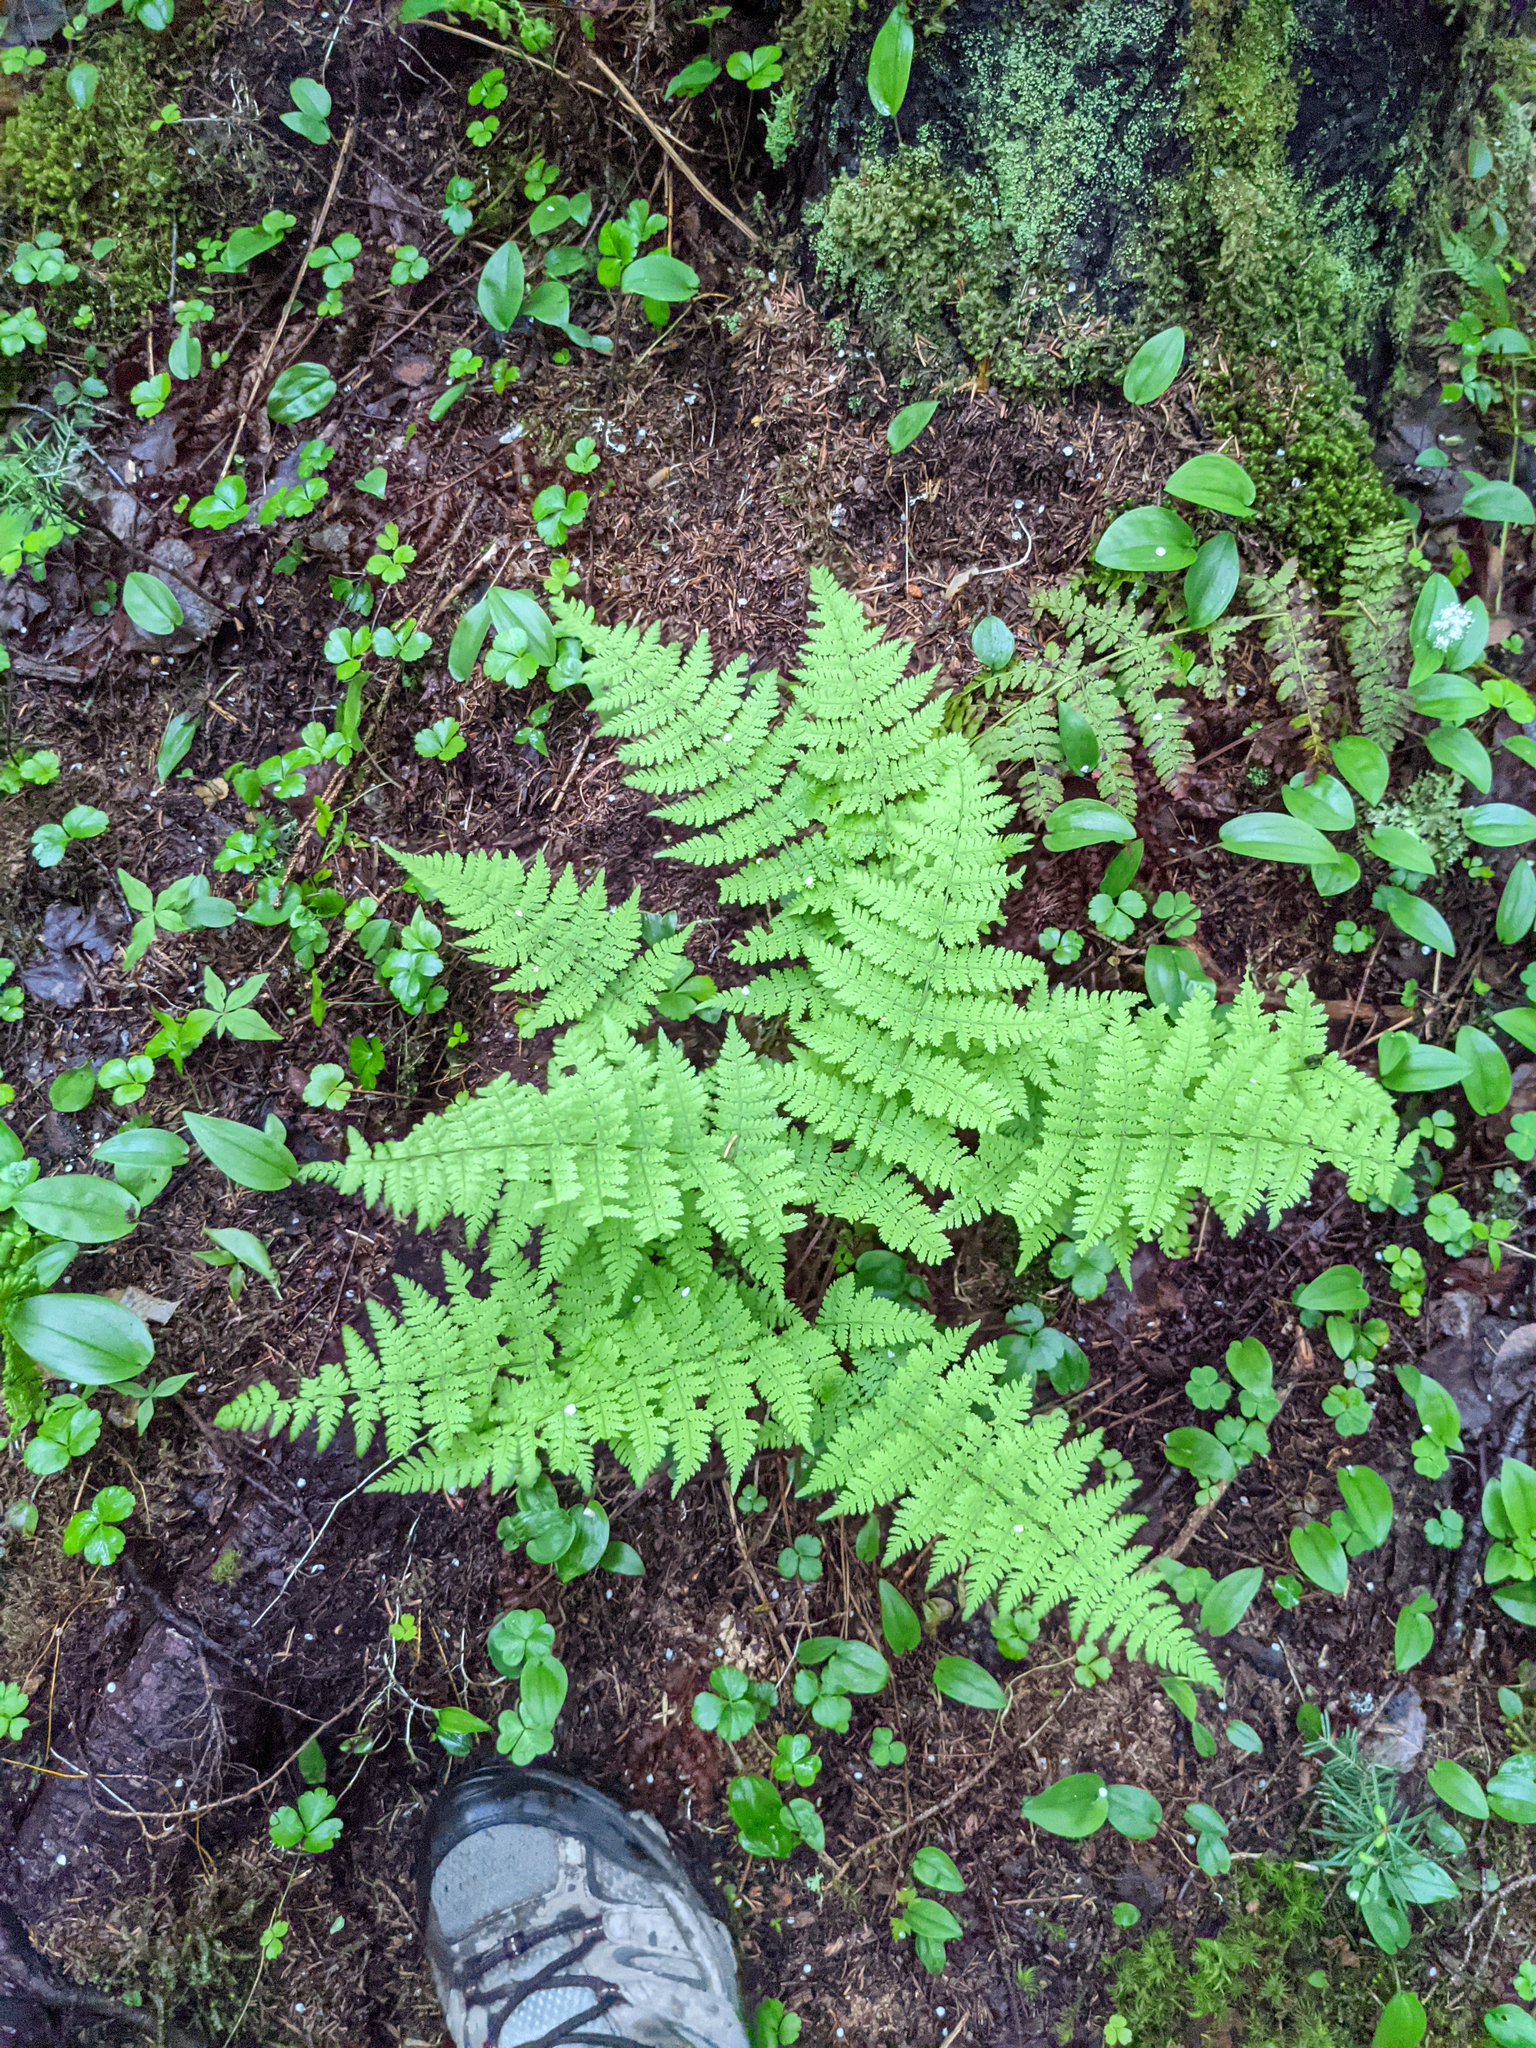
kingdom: Plantae
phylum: Tracheophyta
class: Polypodiopsida
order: Polypodiales
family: Dryopteridaceae
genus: Dryopteris
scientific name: Dryopteris intermedia
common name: Evergreen wood fern
